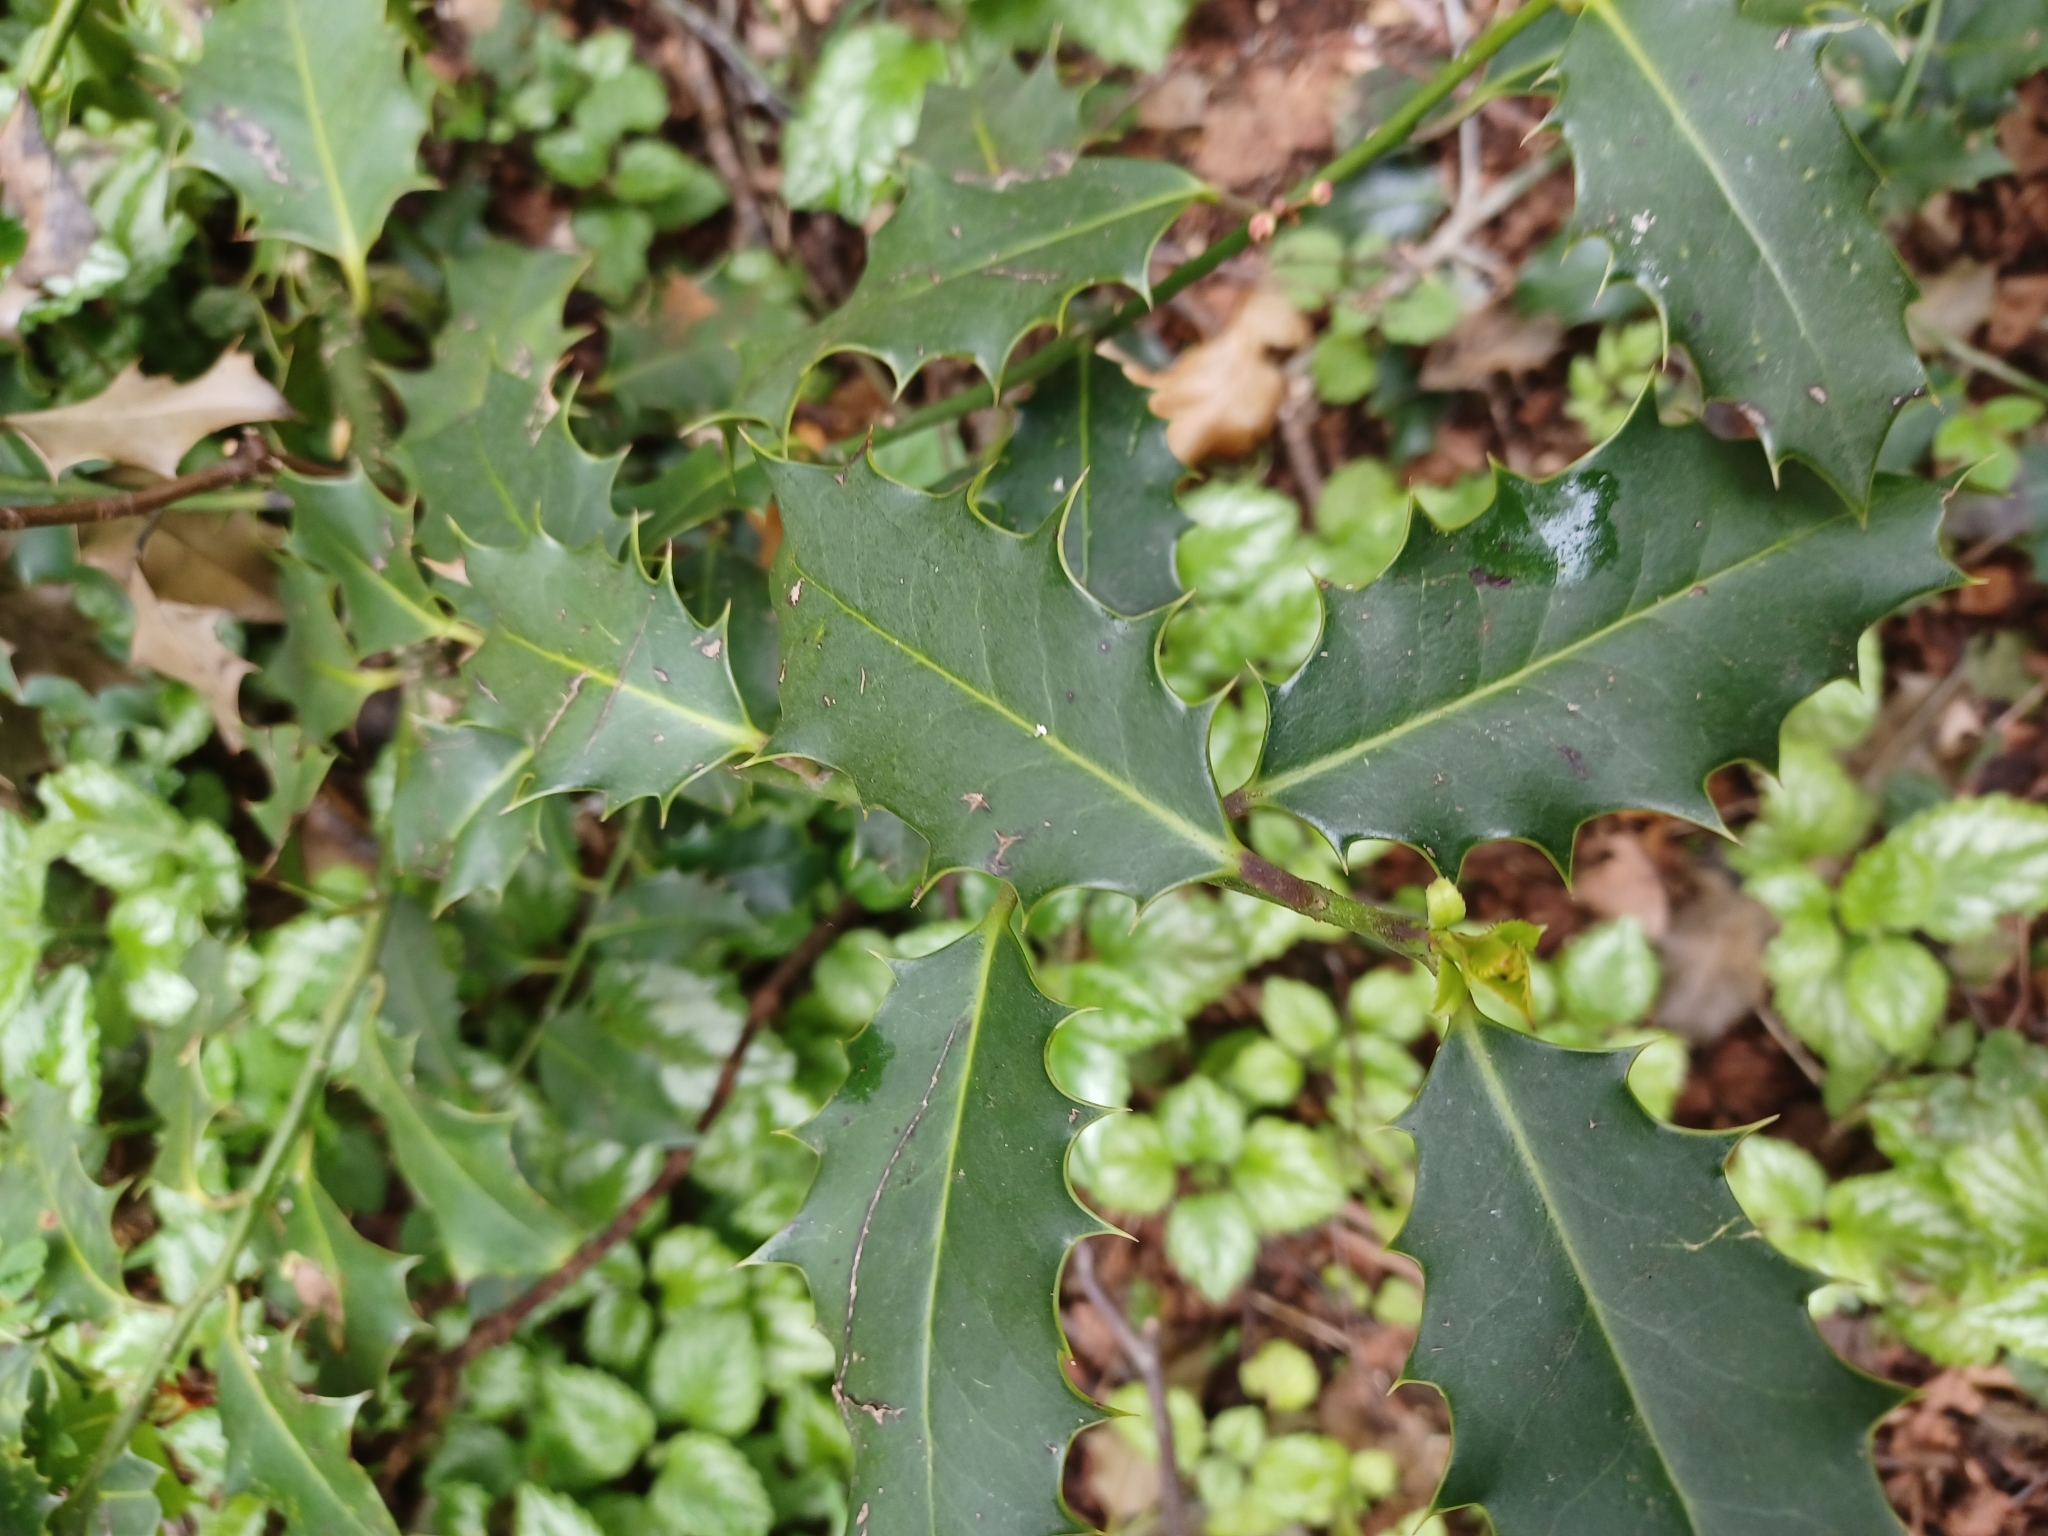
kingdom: Plantae
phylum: Tracheophyta
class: Magnoliopsida
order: Aquifoliales
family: Aquifoliaceae
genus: Ilex
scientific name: Ilex aquifolium
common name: English holly
